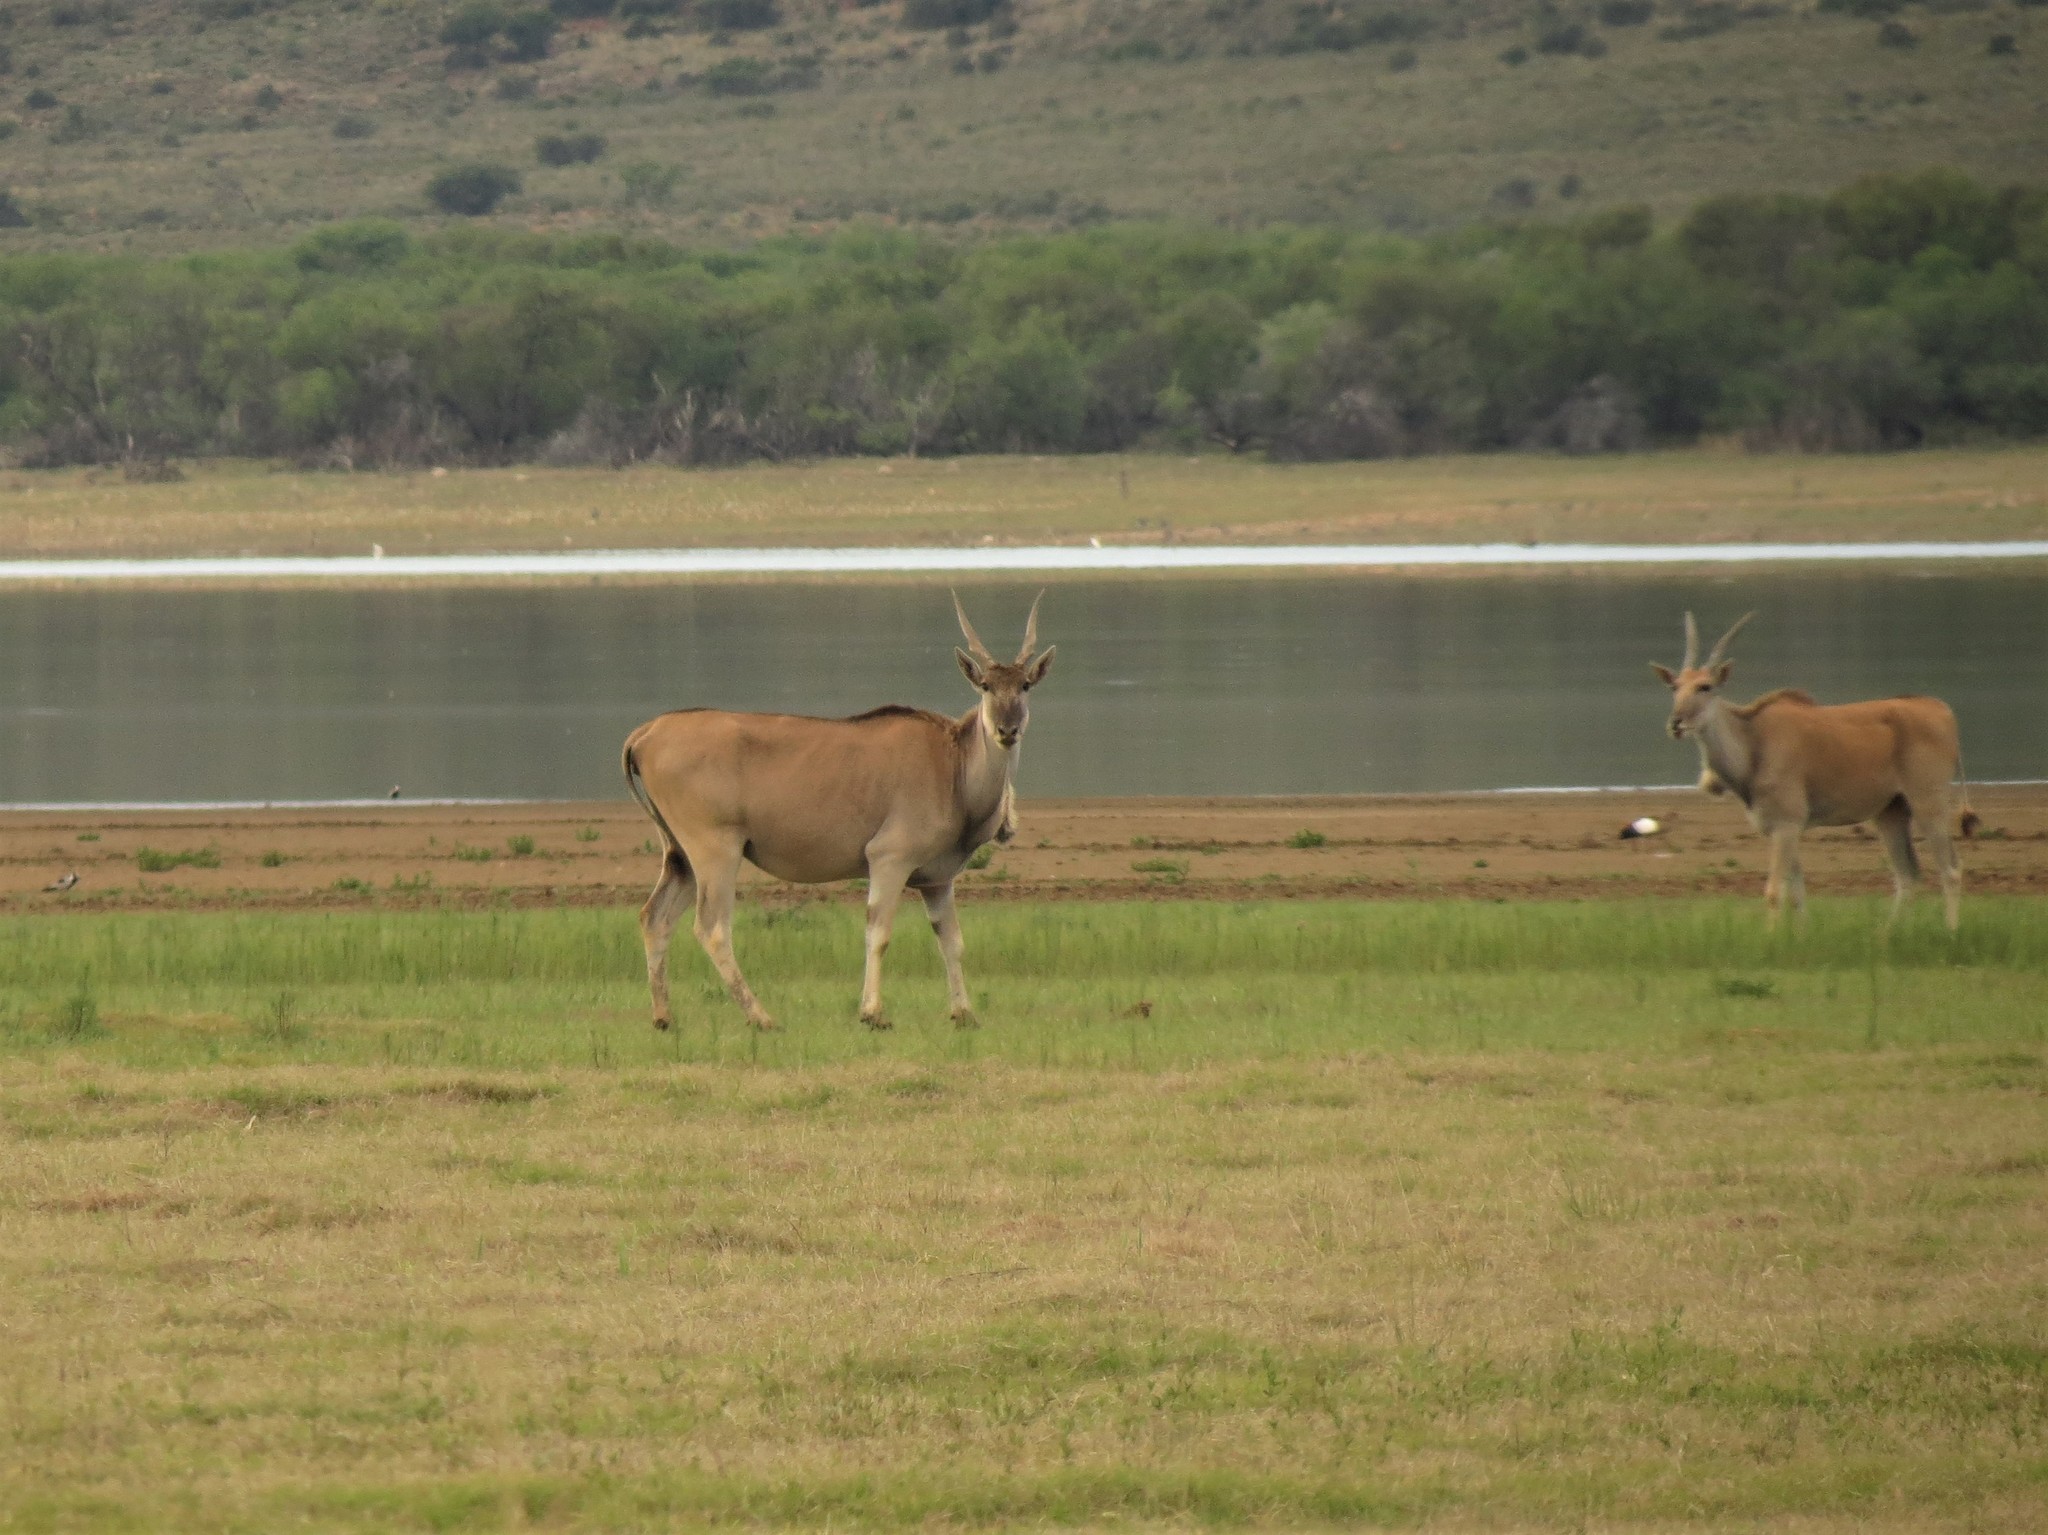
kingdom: Animalia
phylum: Chordata
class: Mammalia
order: Artiodactyla
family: Bovidae
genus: Taurotragus
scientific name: Taurotragus oryx
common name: Common eland
